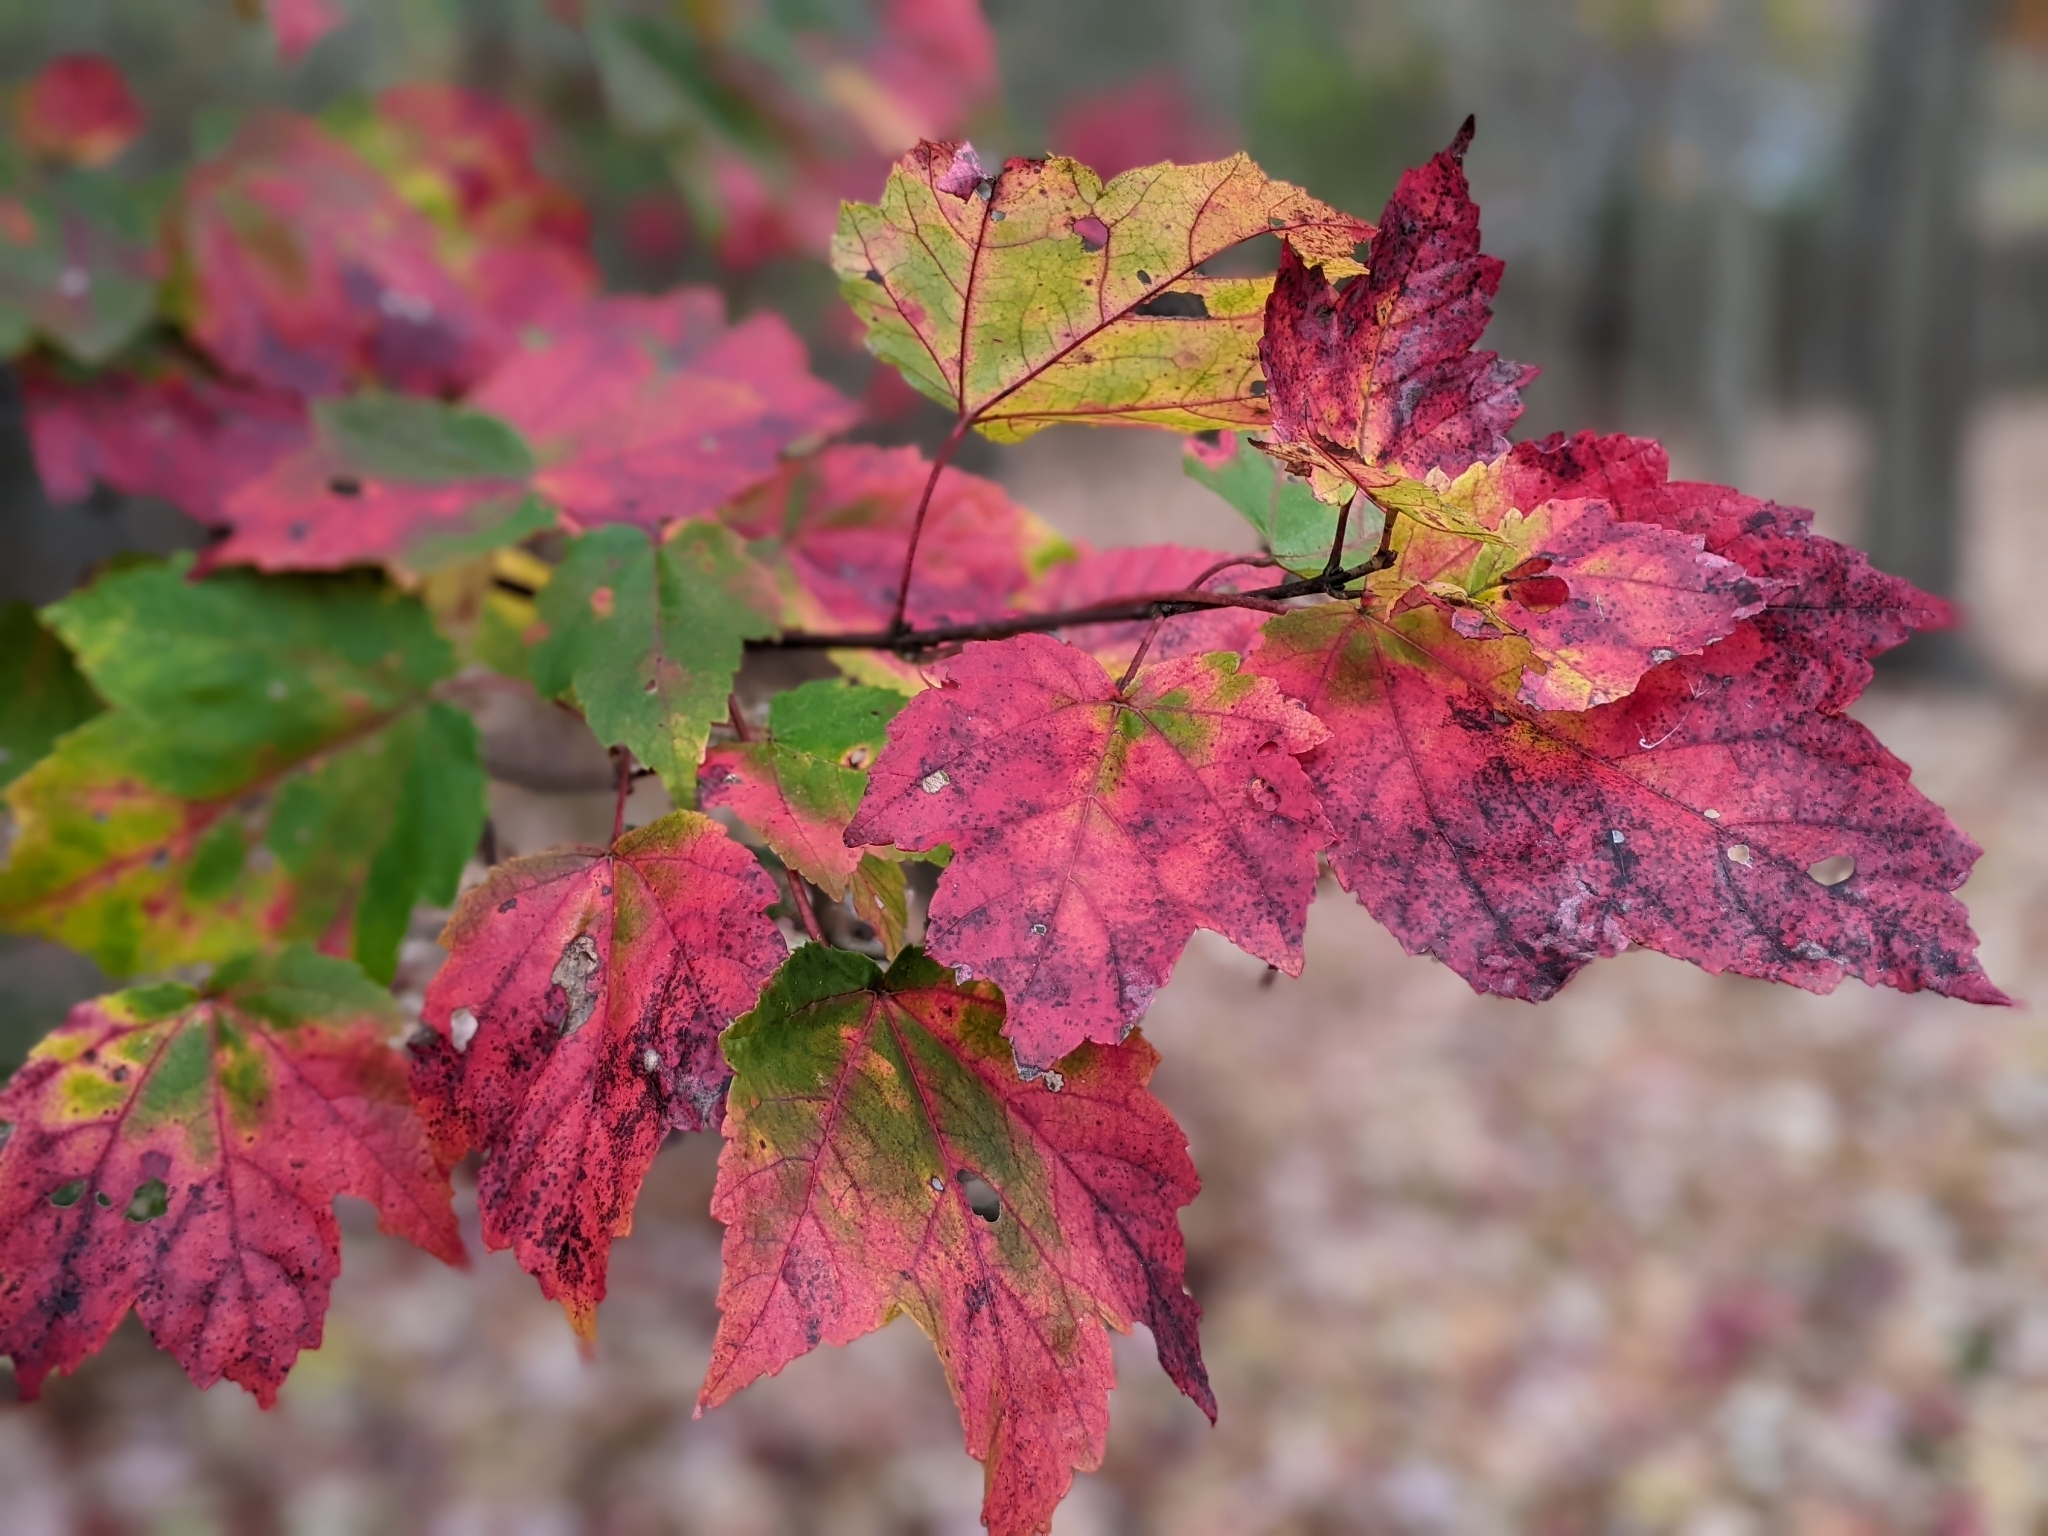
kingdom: Plantae
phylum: Tracheophyta
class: Magnoliopsida
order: Sapindales
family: Sapindaceae
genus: Acer
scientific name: Acer rubrum
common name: Red maple
